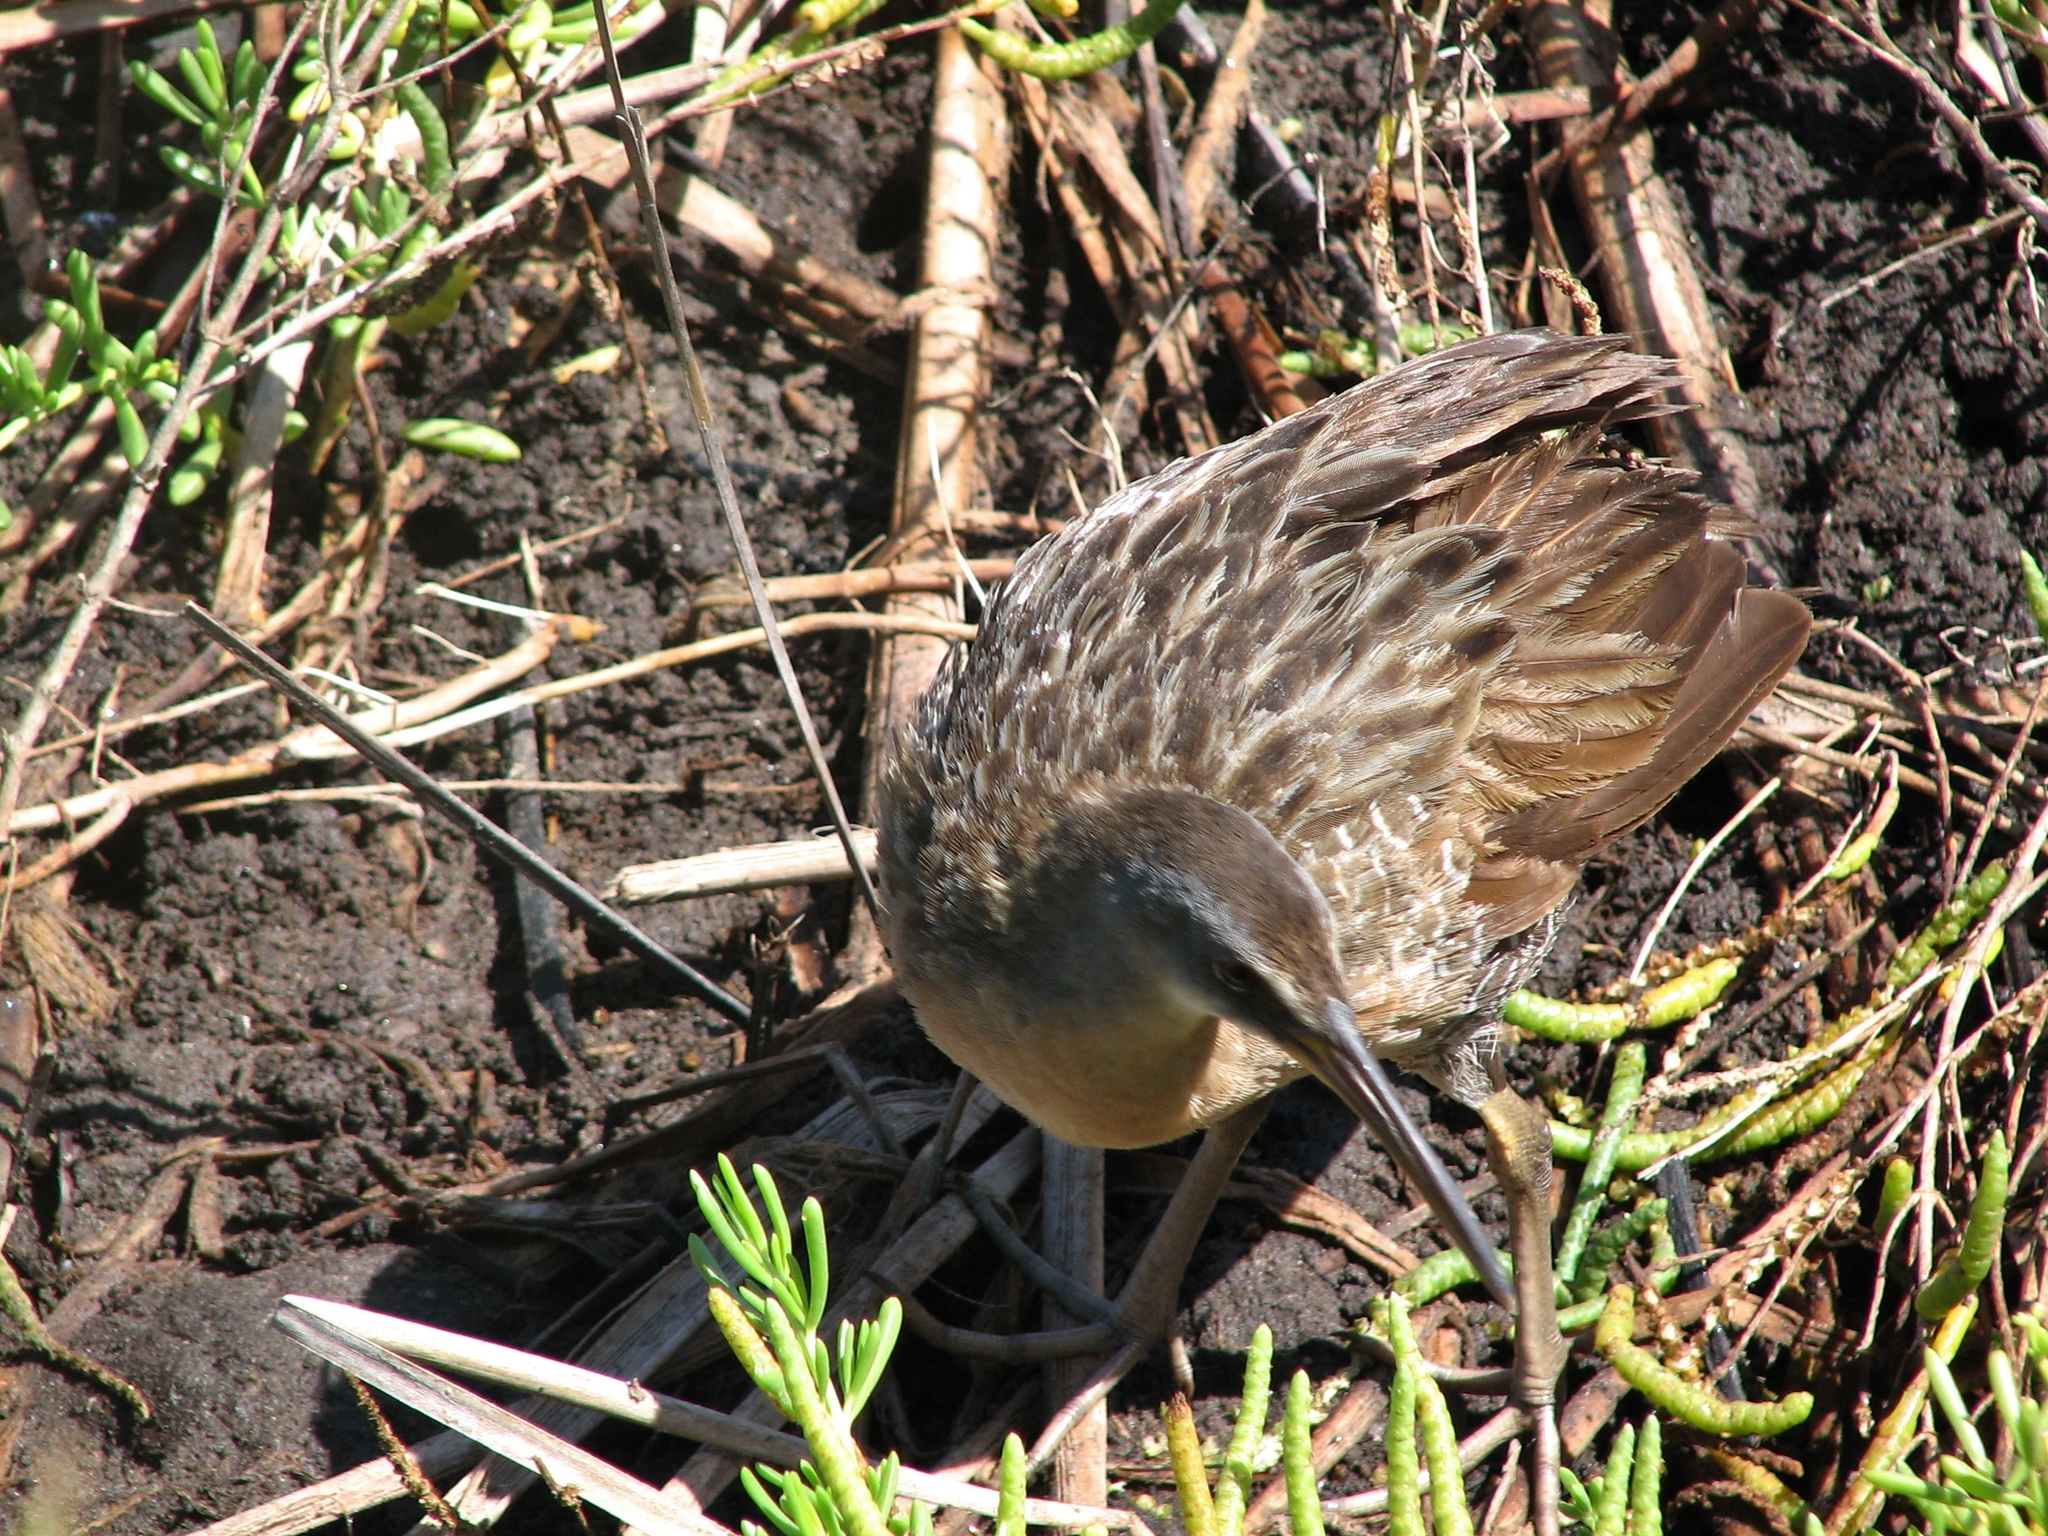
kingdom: Animalia
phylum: Chordata
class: Aves
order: Gruiformes
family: Rallidae
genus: Rallus
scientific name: Rallus crepitans
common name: Clapper rail
